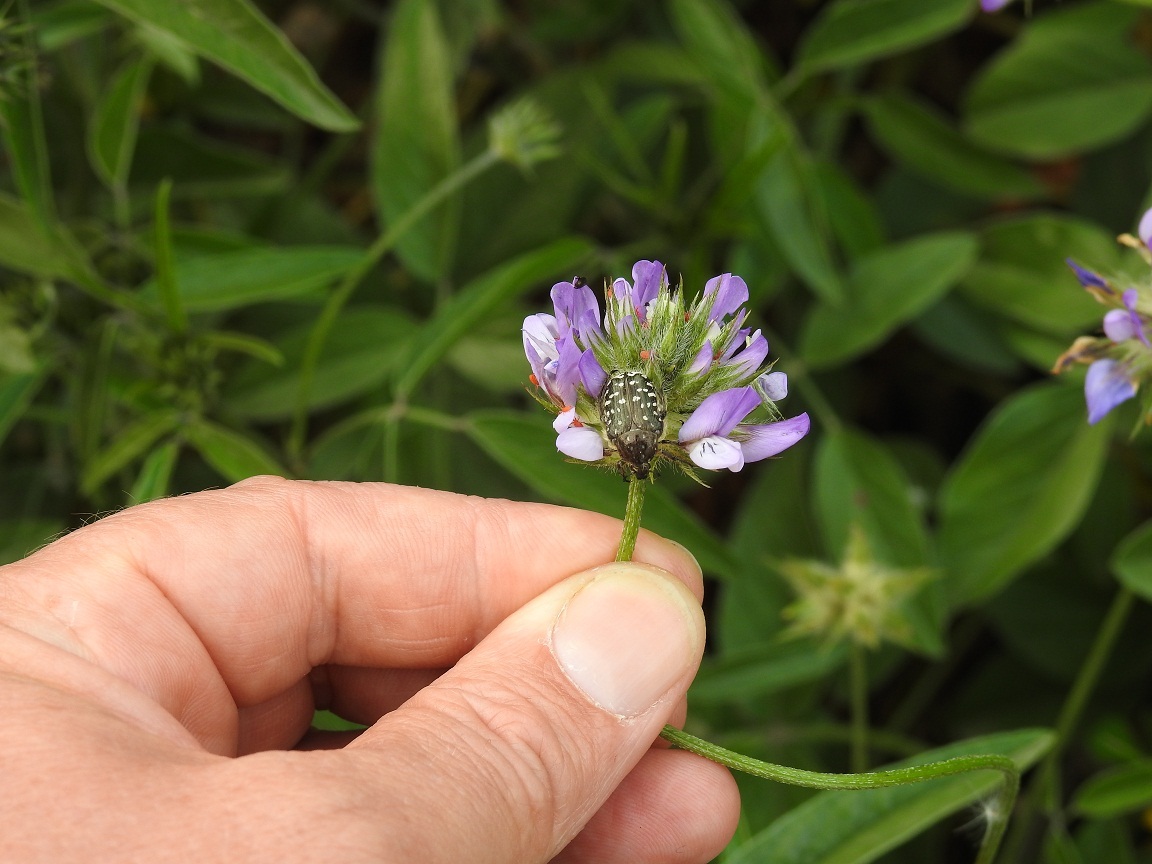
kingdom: Plantae
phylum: Tracheophyta
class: Magnoliopsida
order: Fabales
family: Fabaceae
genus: Bituminaria
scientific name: Bituminaria bituminosa
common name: Arabian pea
